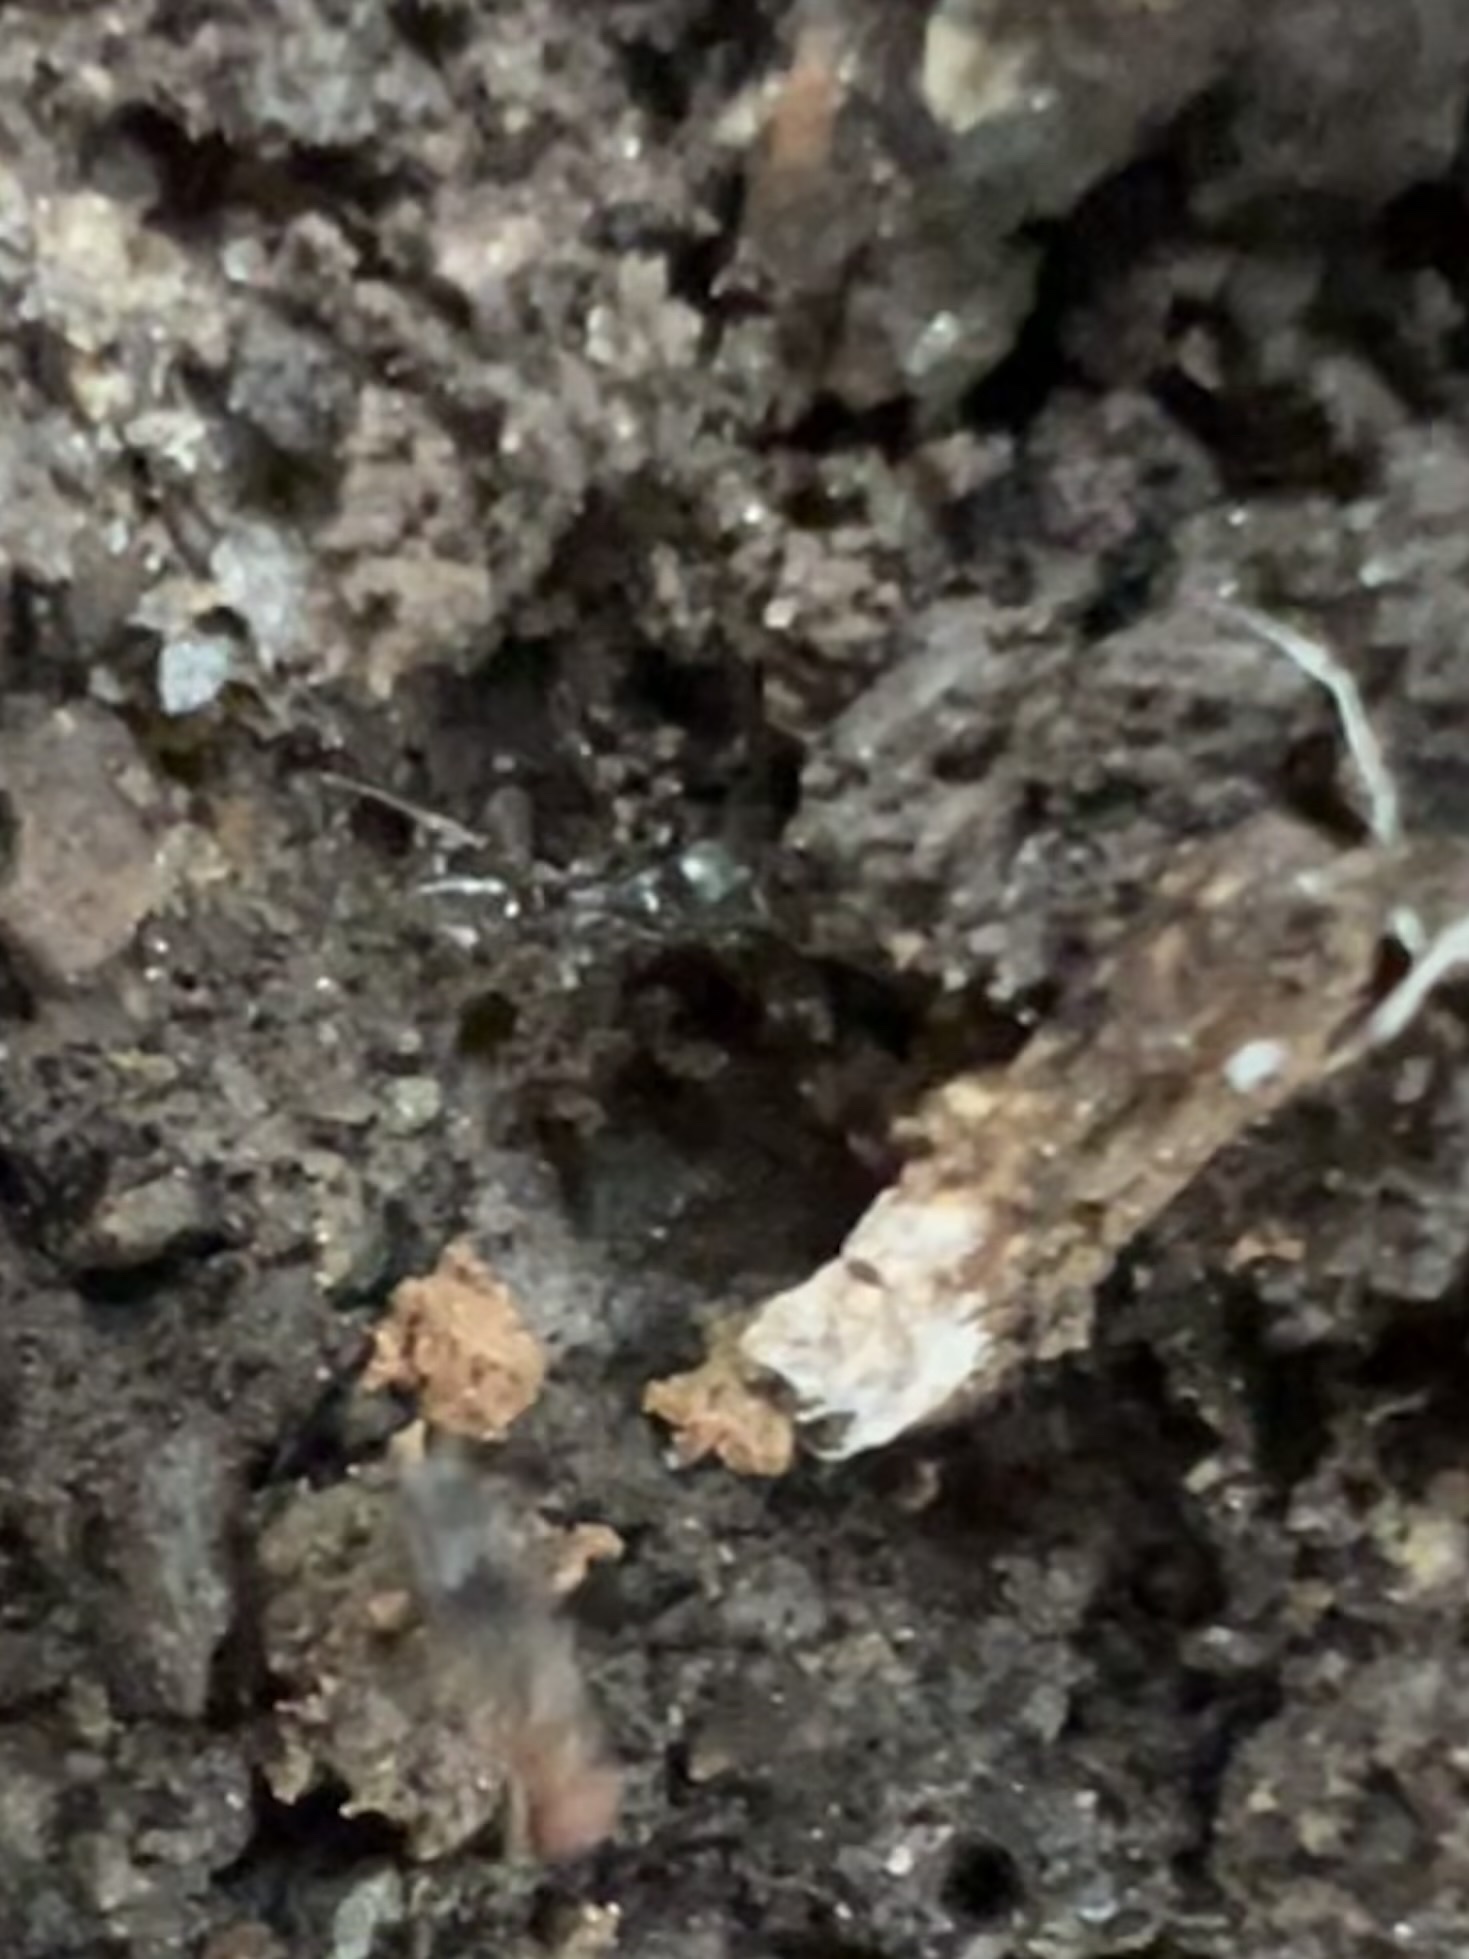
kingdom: Animalia
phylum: Arthropoda
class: Insecta
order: Hymenoptera
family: Formicidae
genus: Pachycondyla
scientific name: Pachycondyla chinensis
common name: Asian needle ant
